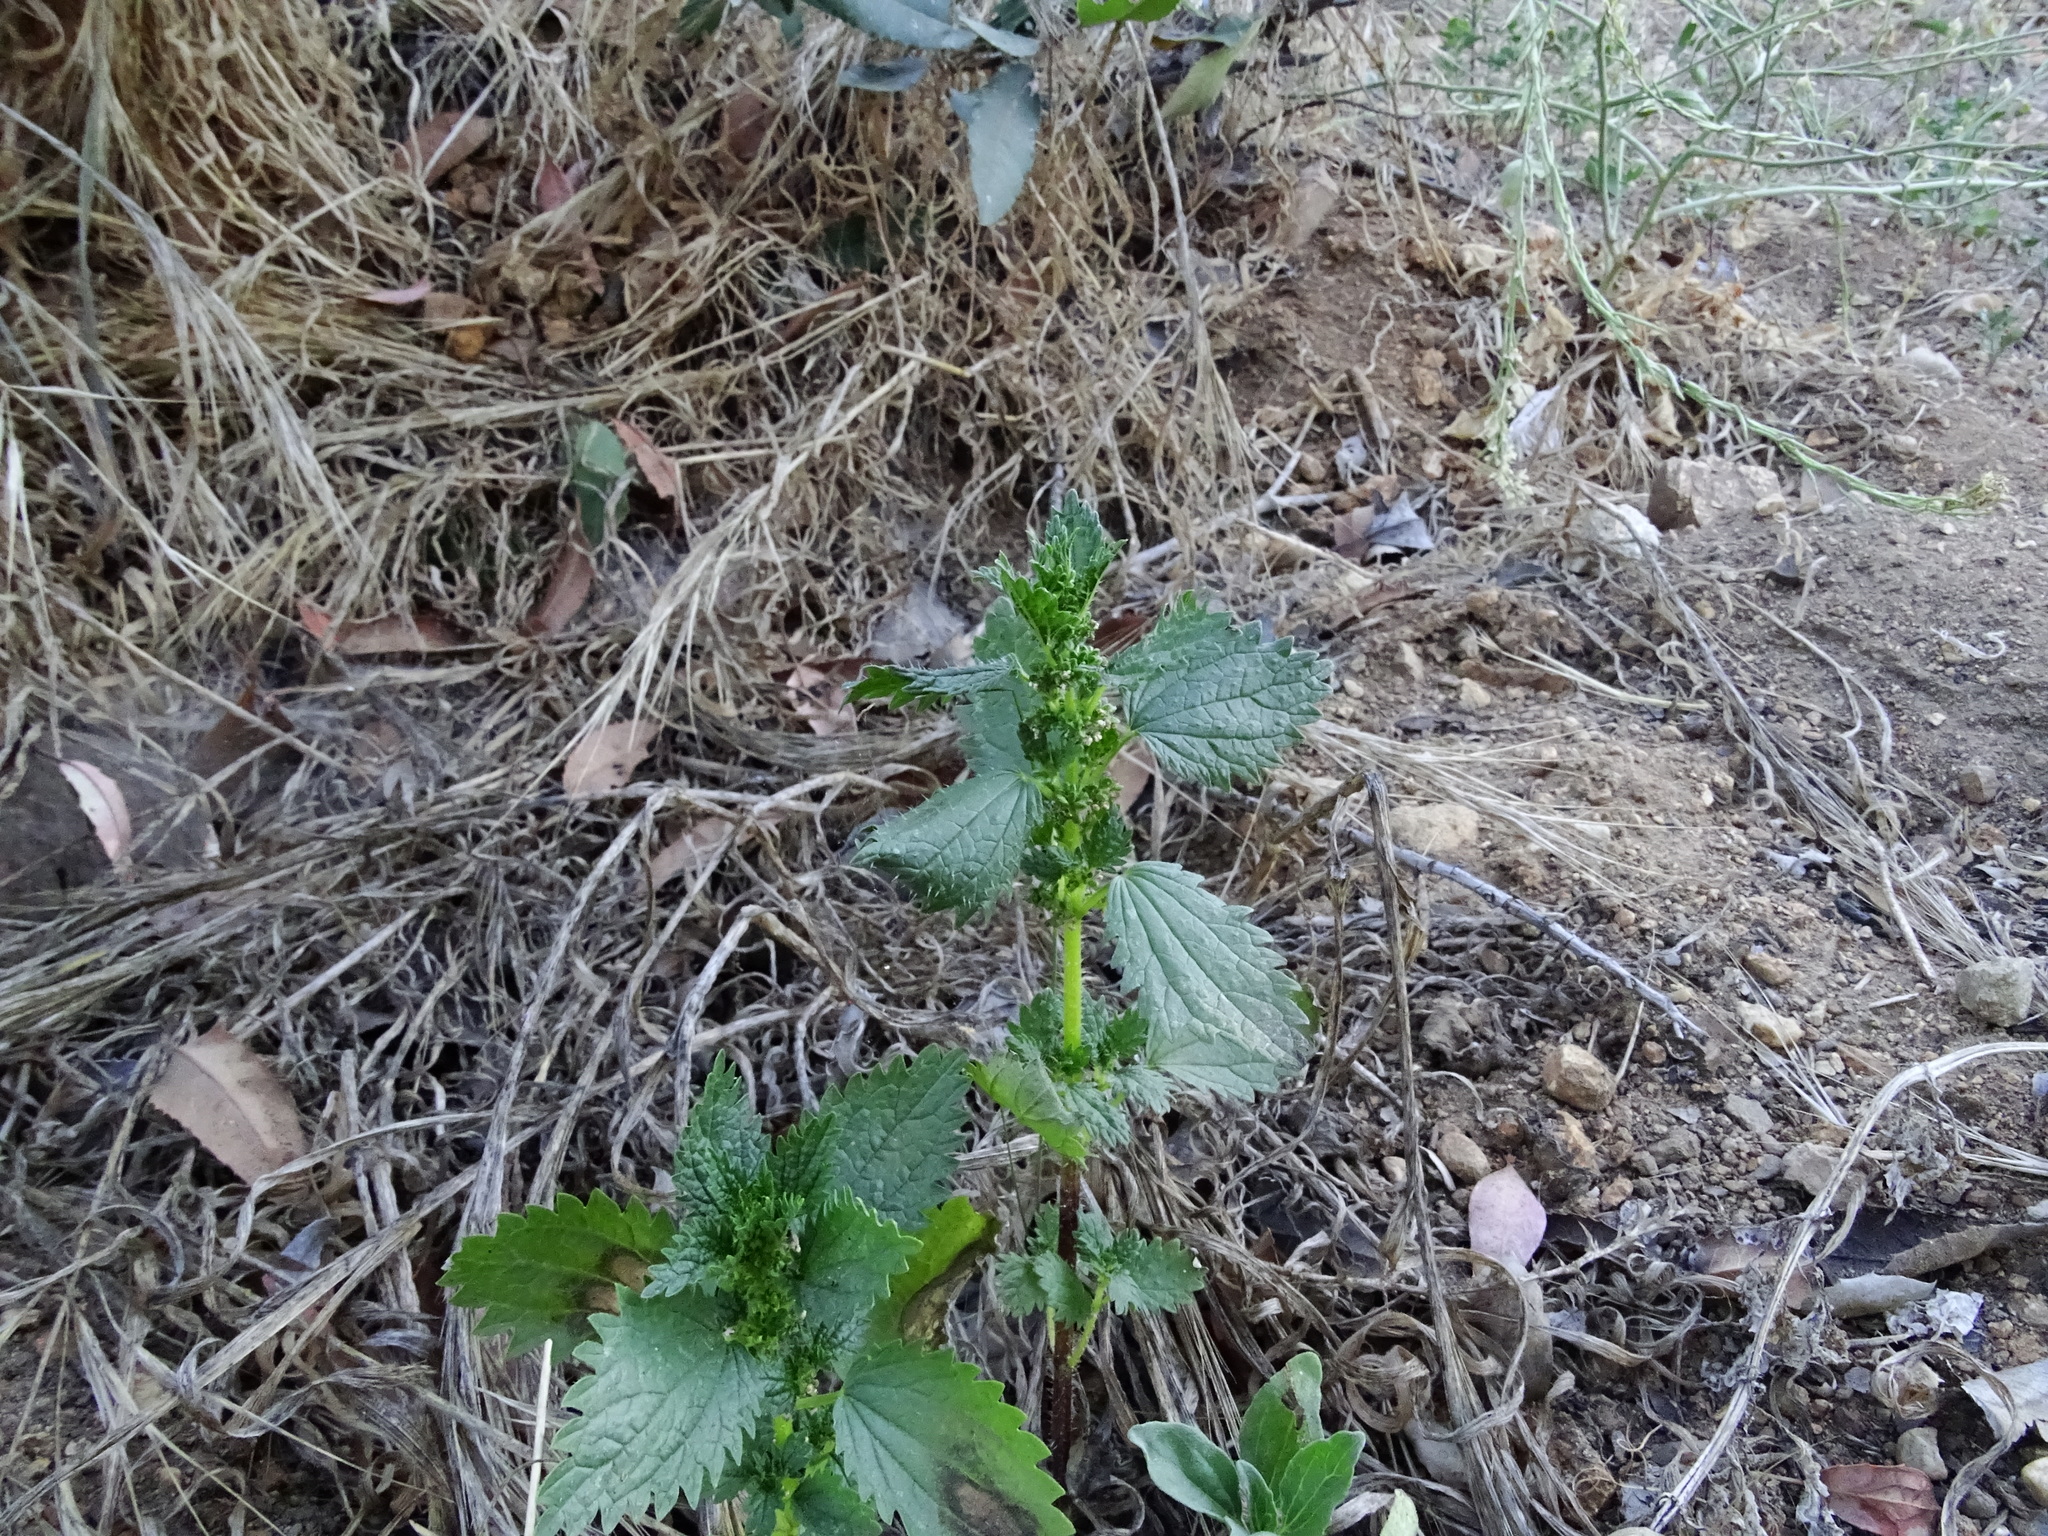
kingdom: Plantae
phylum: Tracheophyta
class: Magnoliopsida
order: Rosales
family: Urticaceae
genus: Urtica
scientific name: Urtica urens
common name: Dwarf nettle
